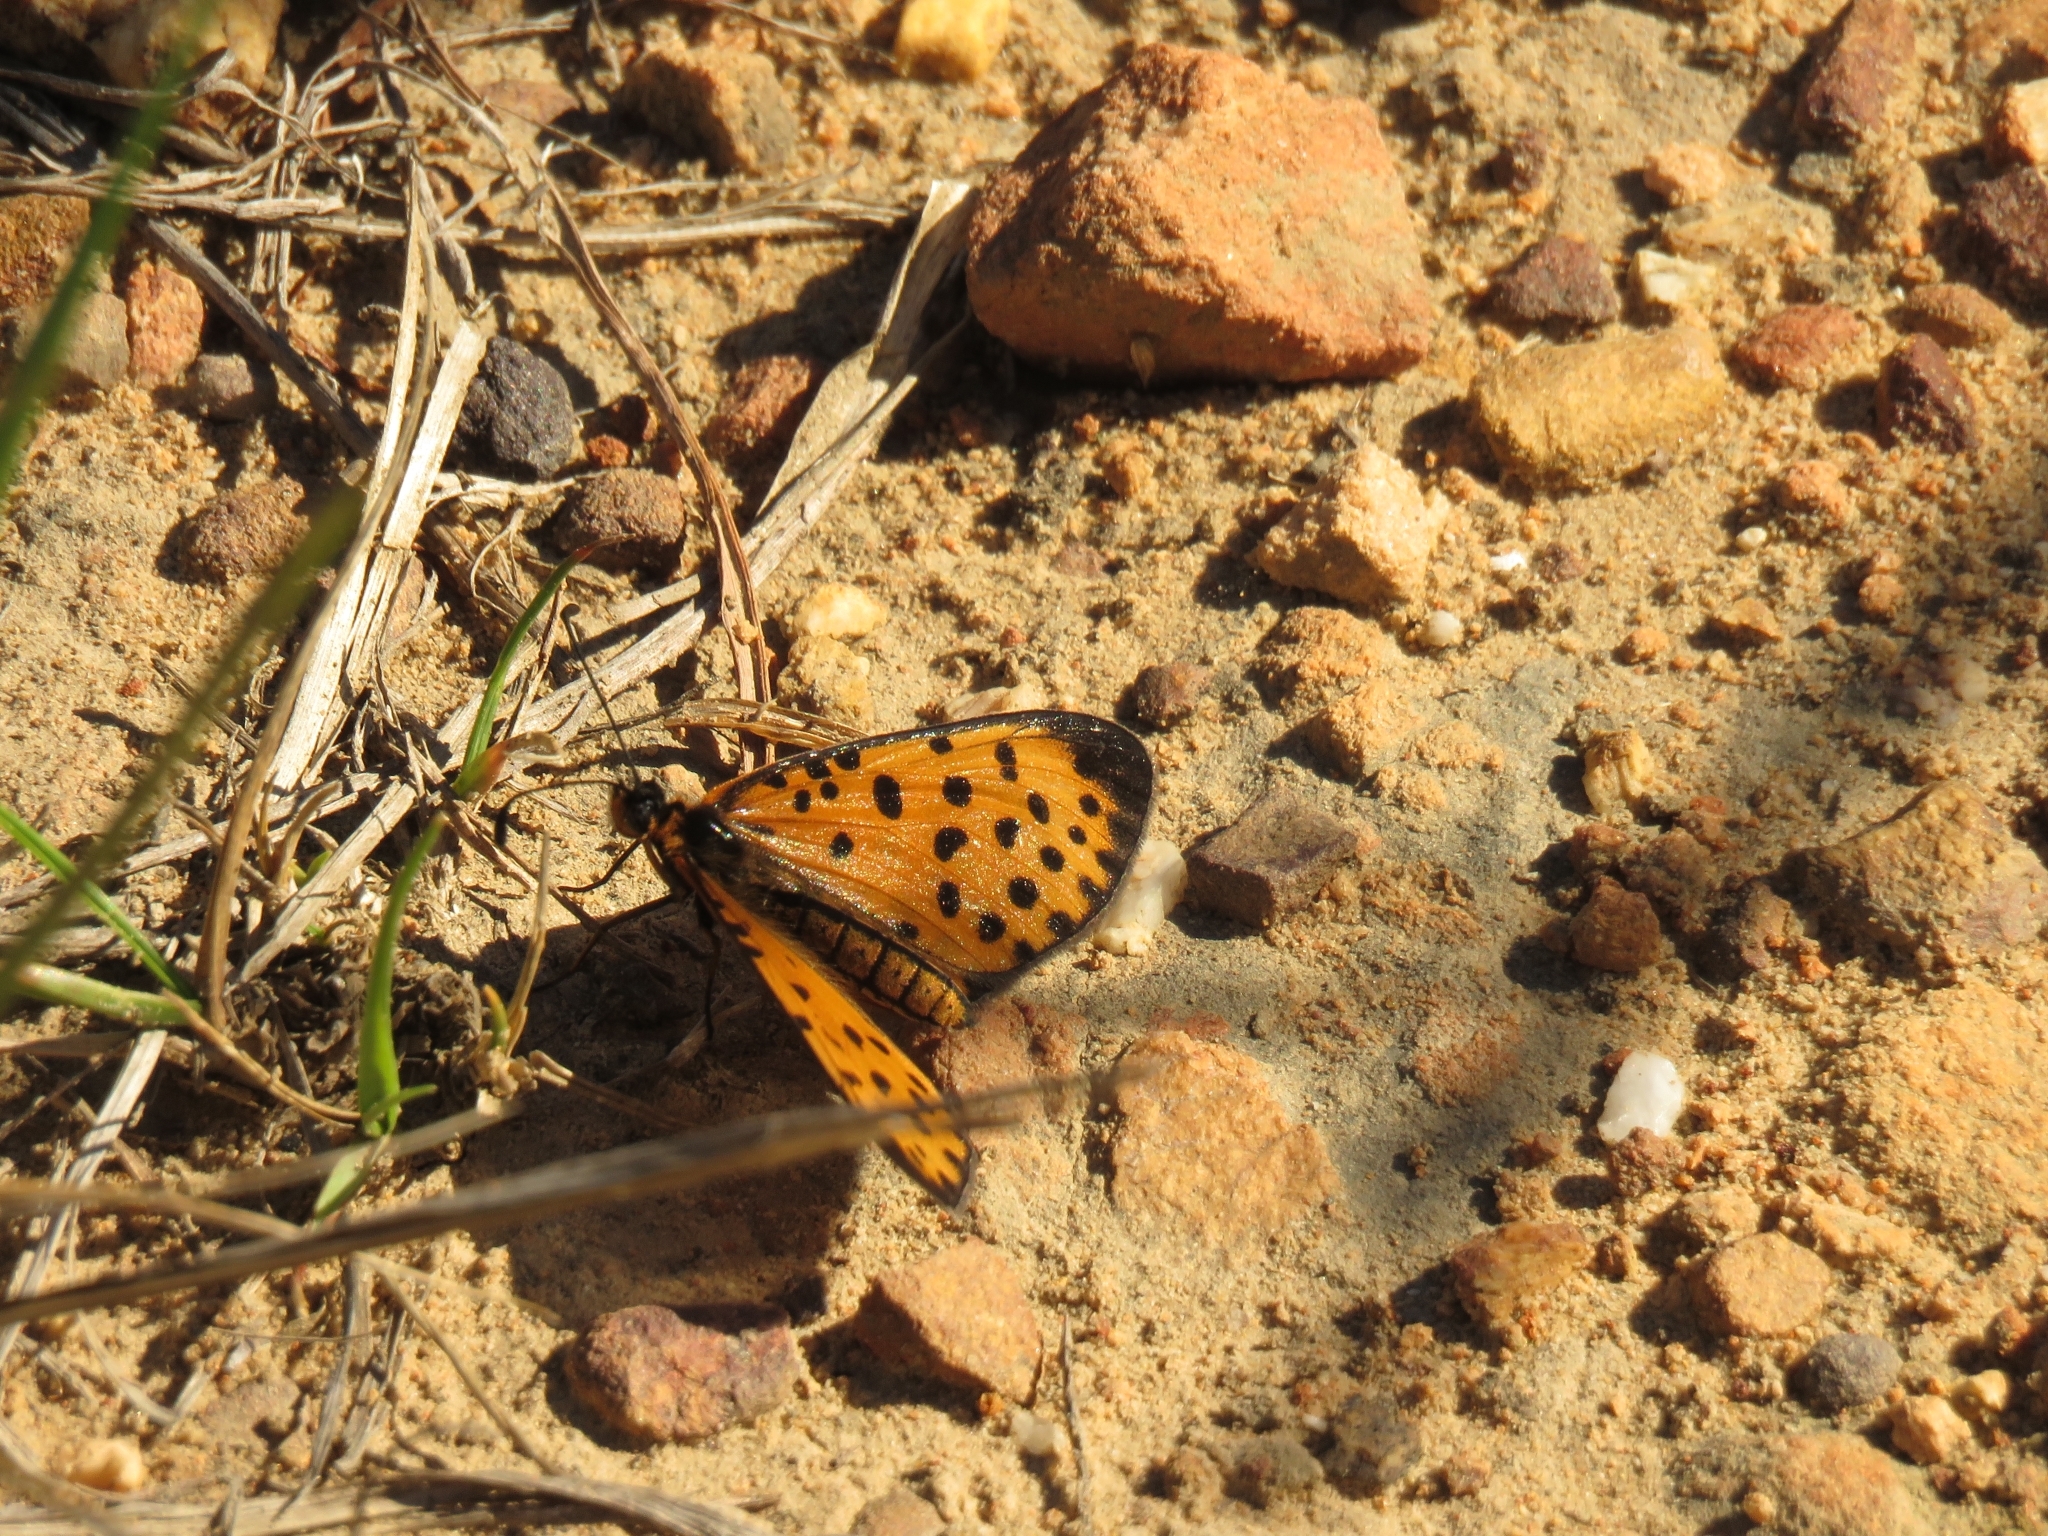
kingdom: Animalia
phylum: Arthropoda
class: Insecta
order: Lepidoptera
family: Nymphalidae
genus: Pardopsis
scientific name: Pardopsis punctatissima
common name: Polka dot
